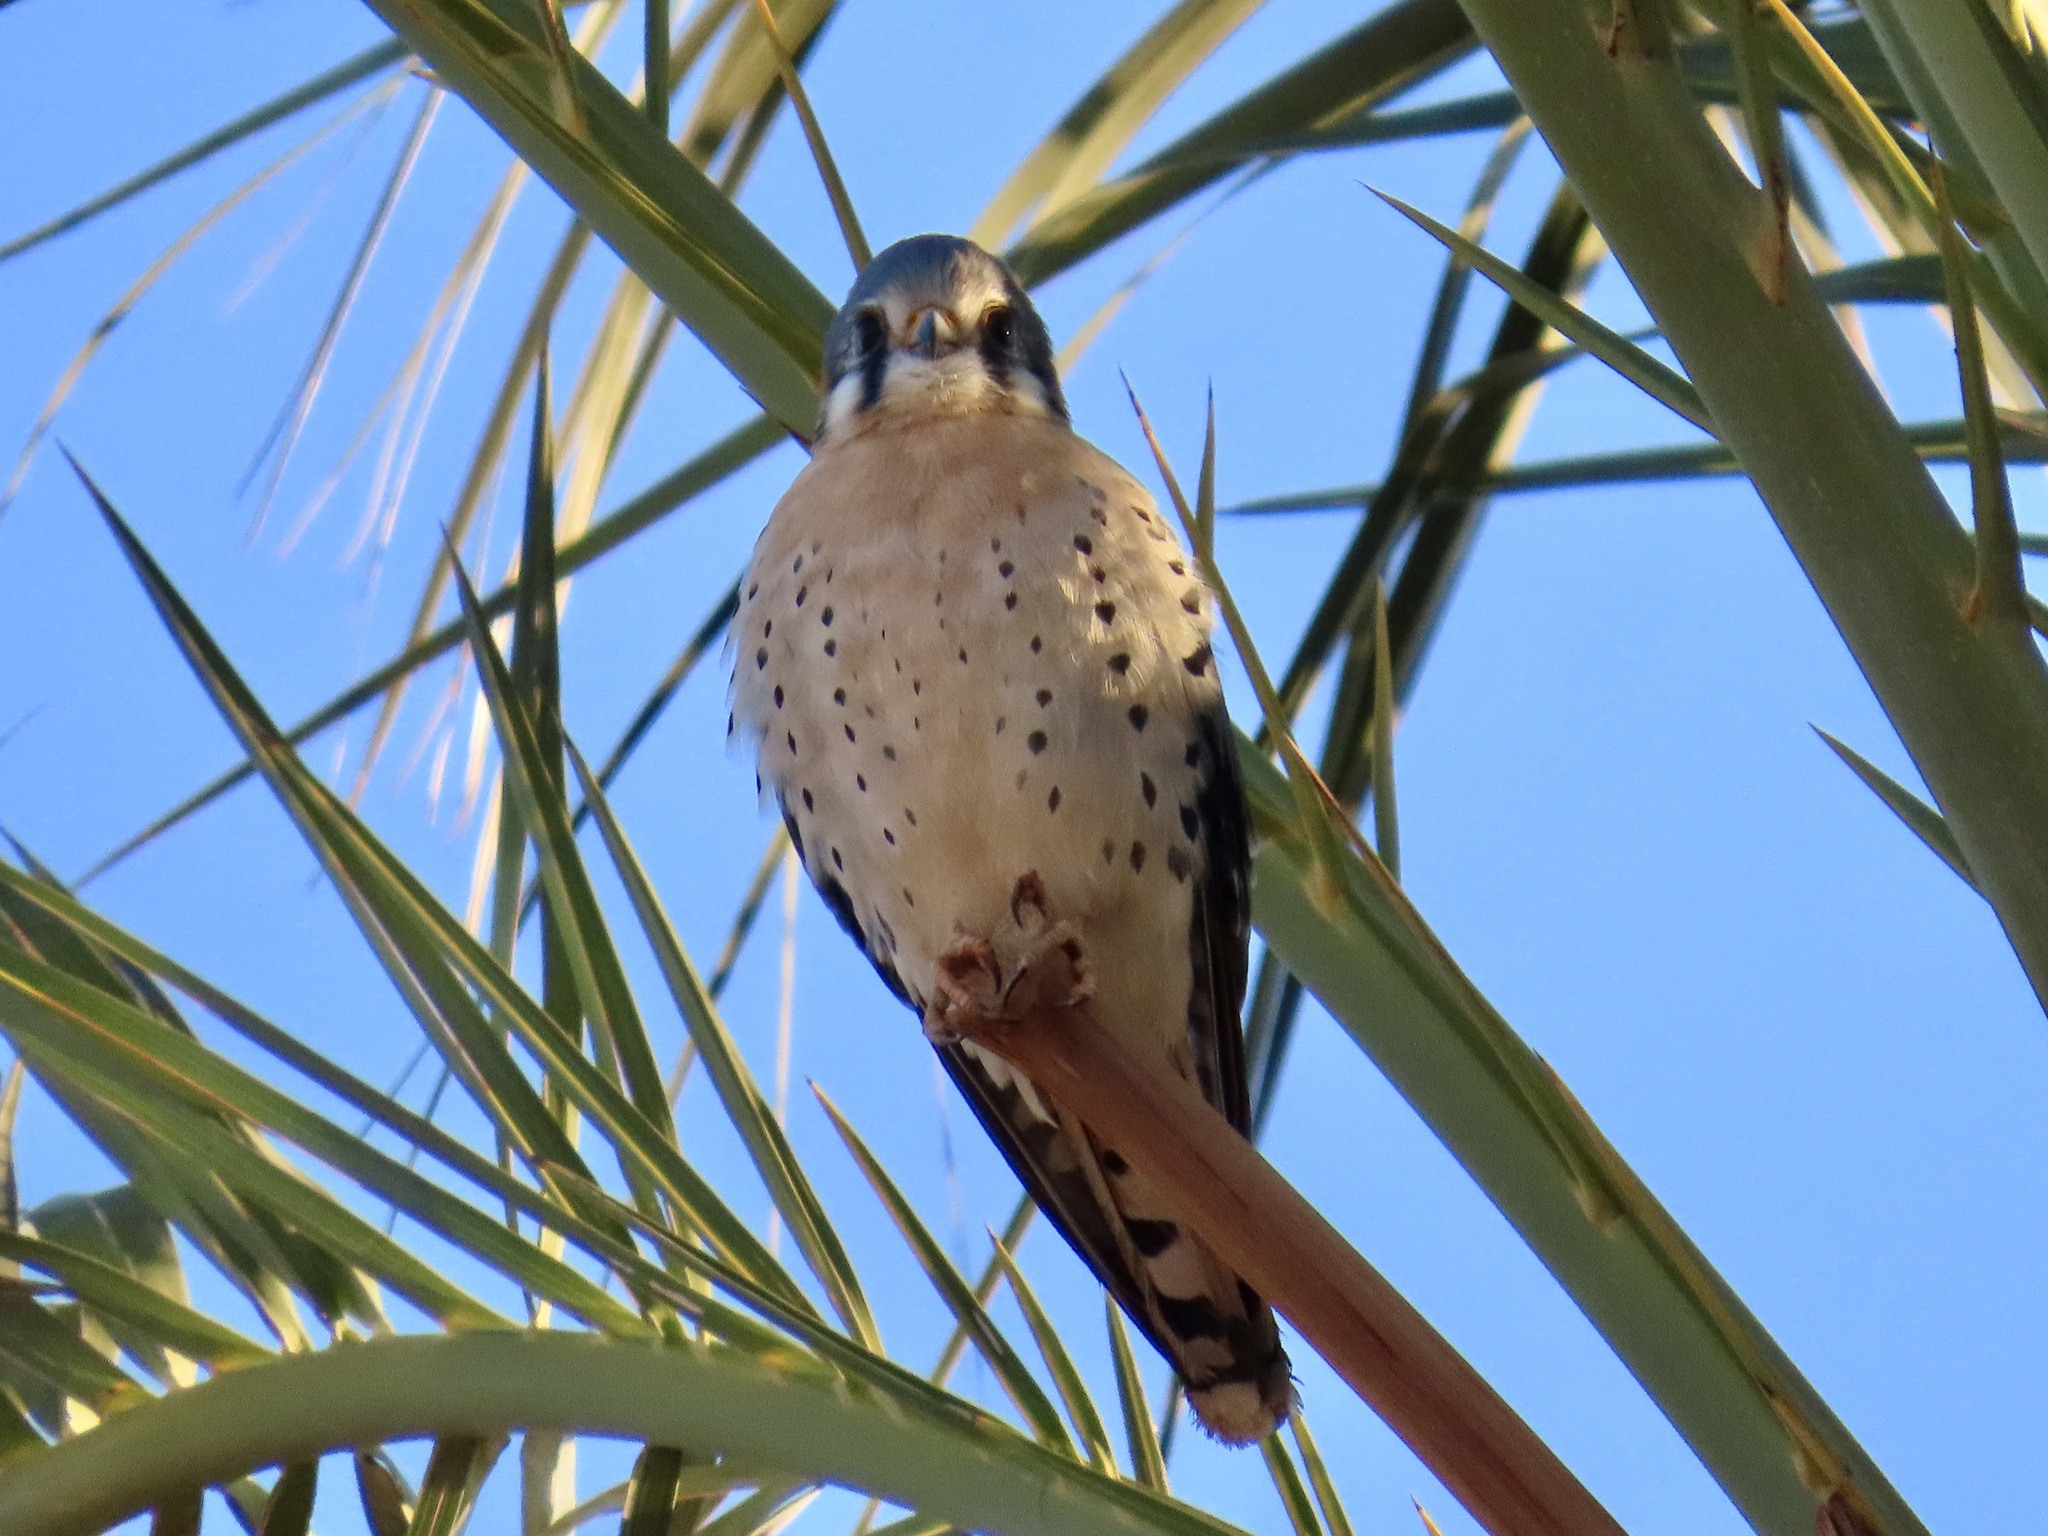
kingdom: Animalia
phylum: Chordata
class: Aves
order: Falconiformes
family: Falconidae
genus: Falco
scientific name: Falco sparverius
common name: American kestrel
